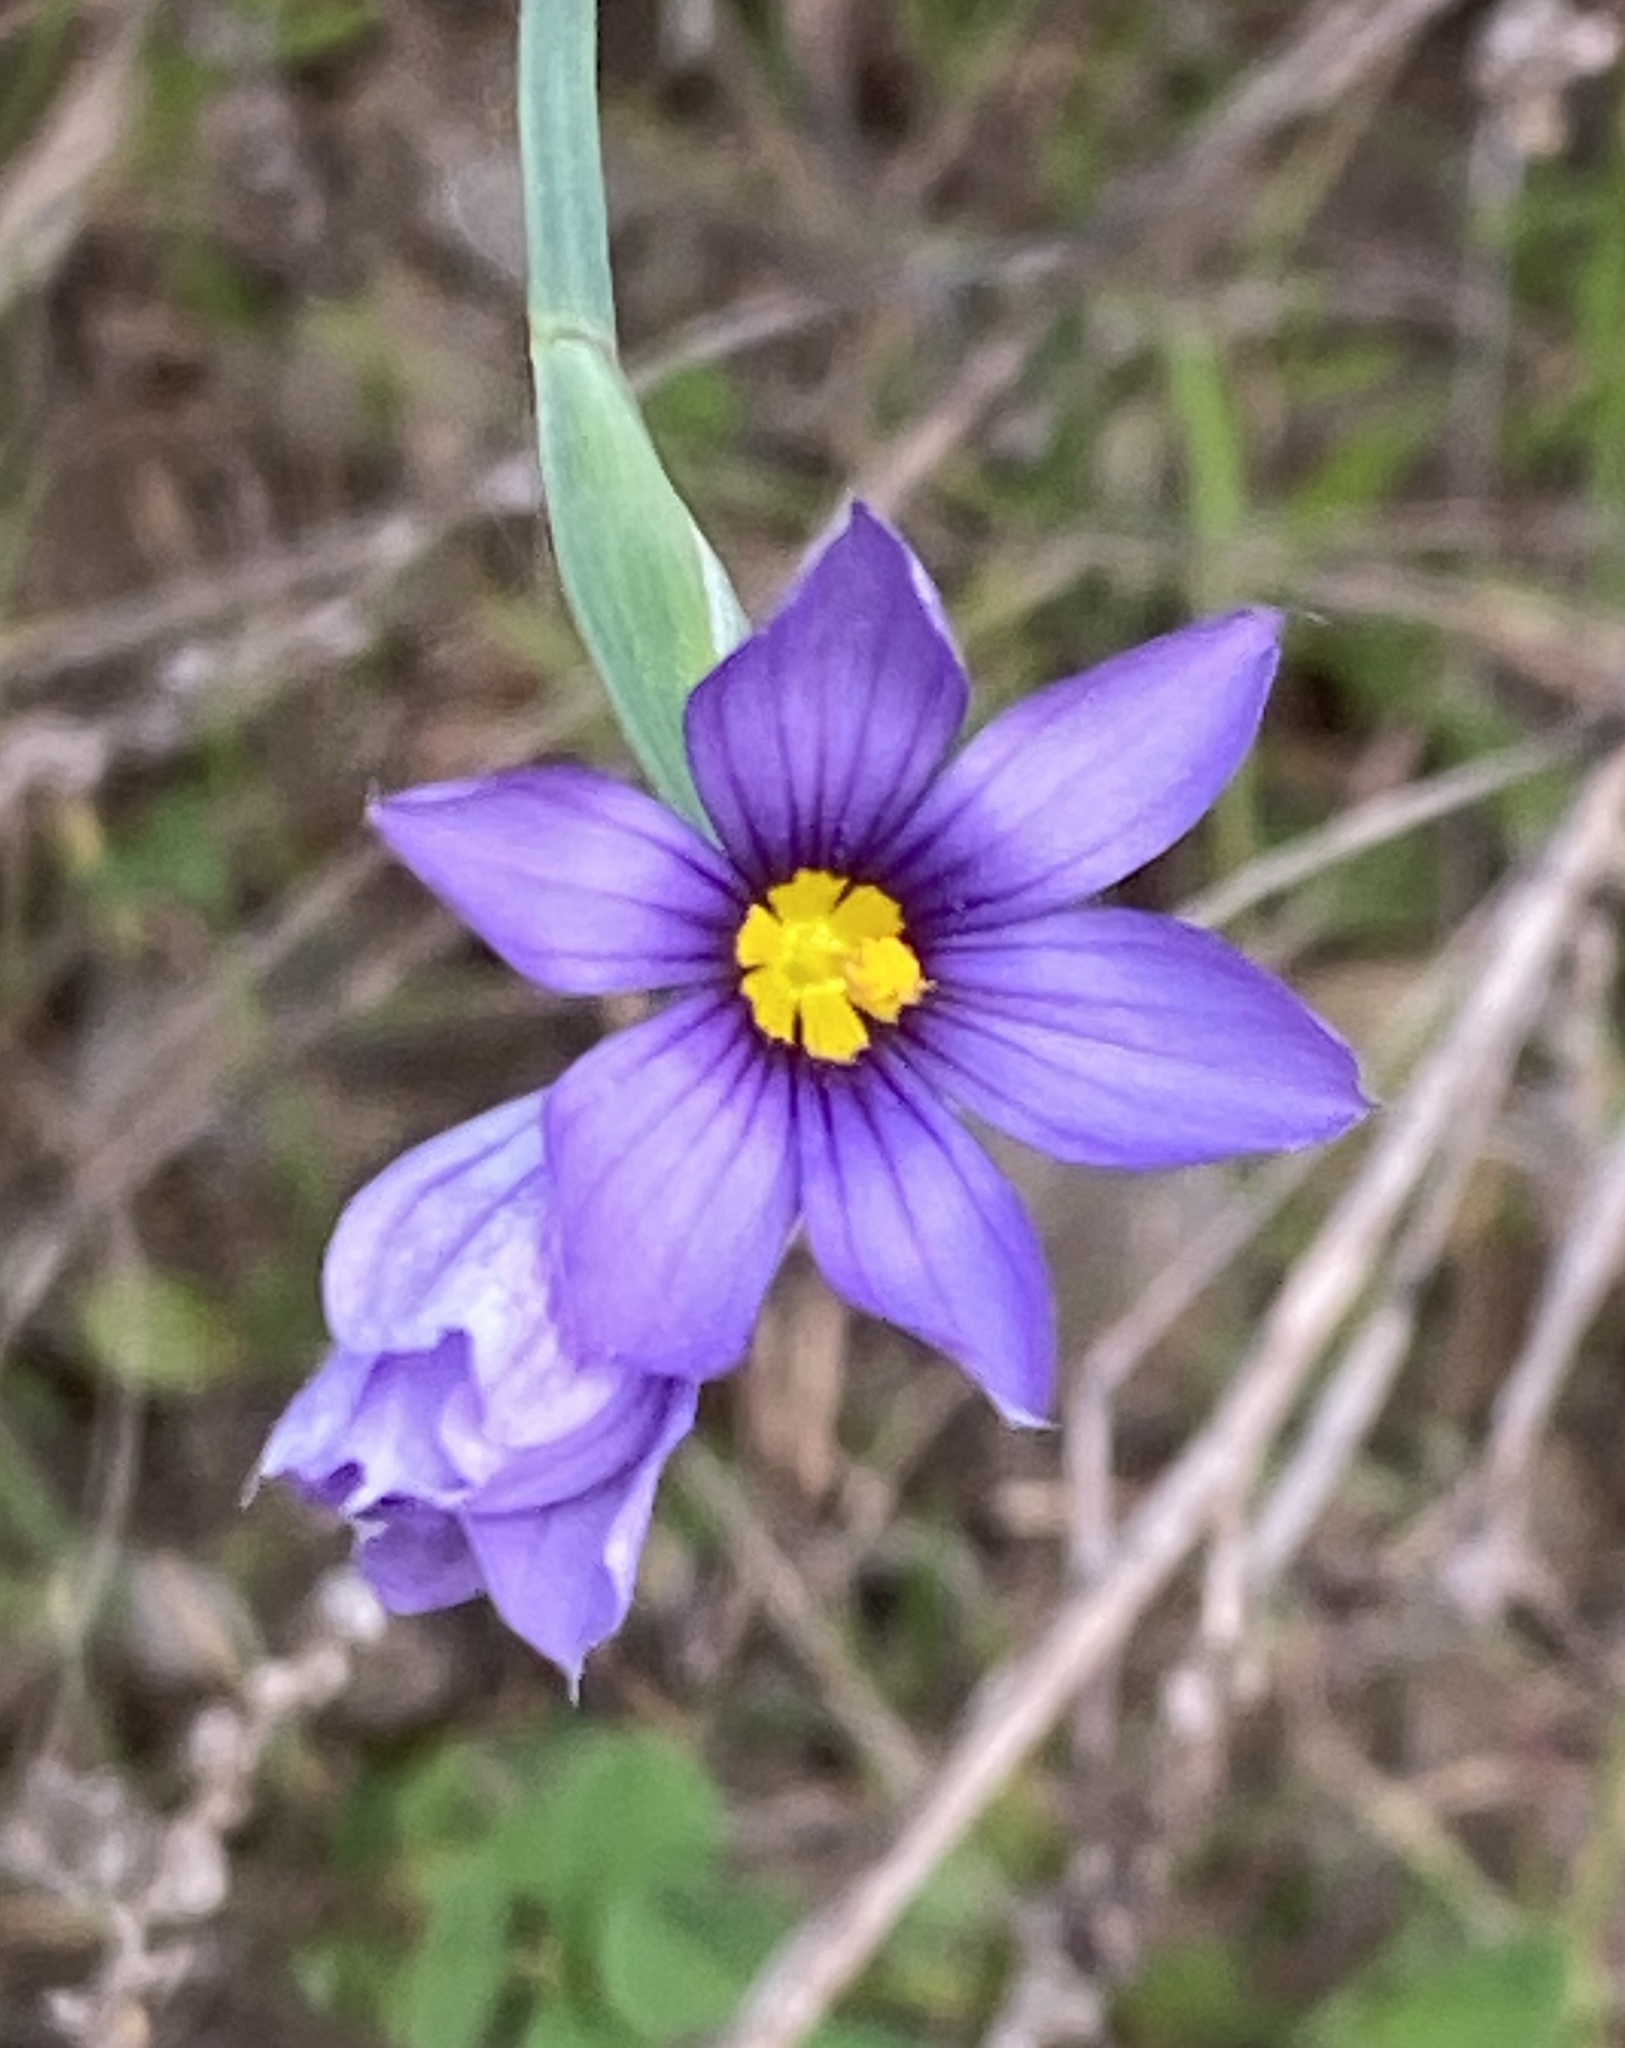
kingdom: Plantae
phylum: Tracheophyta
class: Liliopsida
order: Asparagales
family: Iridaceae
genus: Sisyrinchium
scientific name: Sisyrinchium bellum
